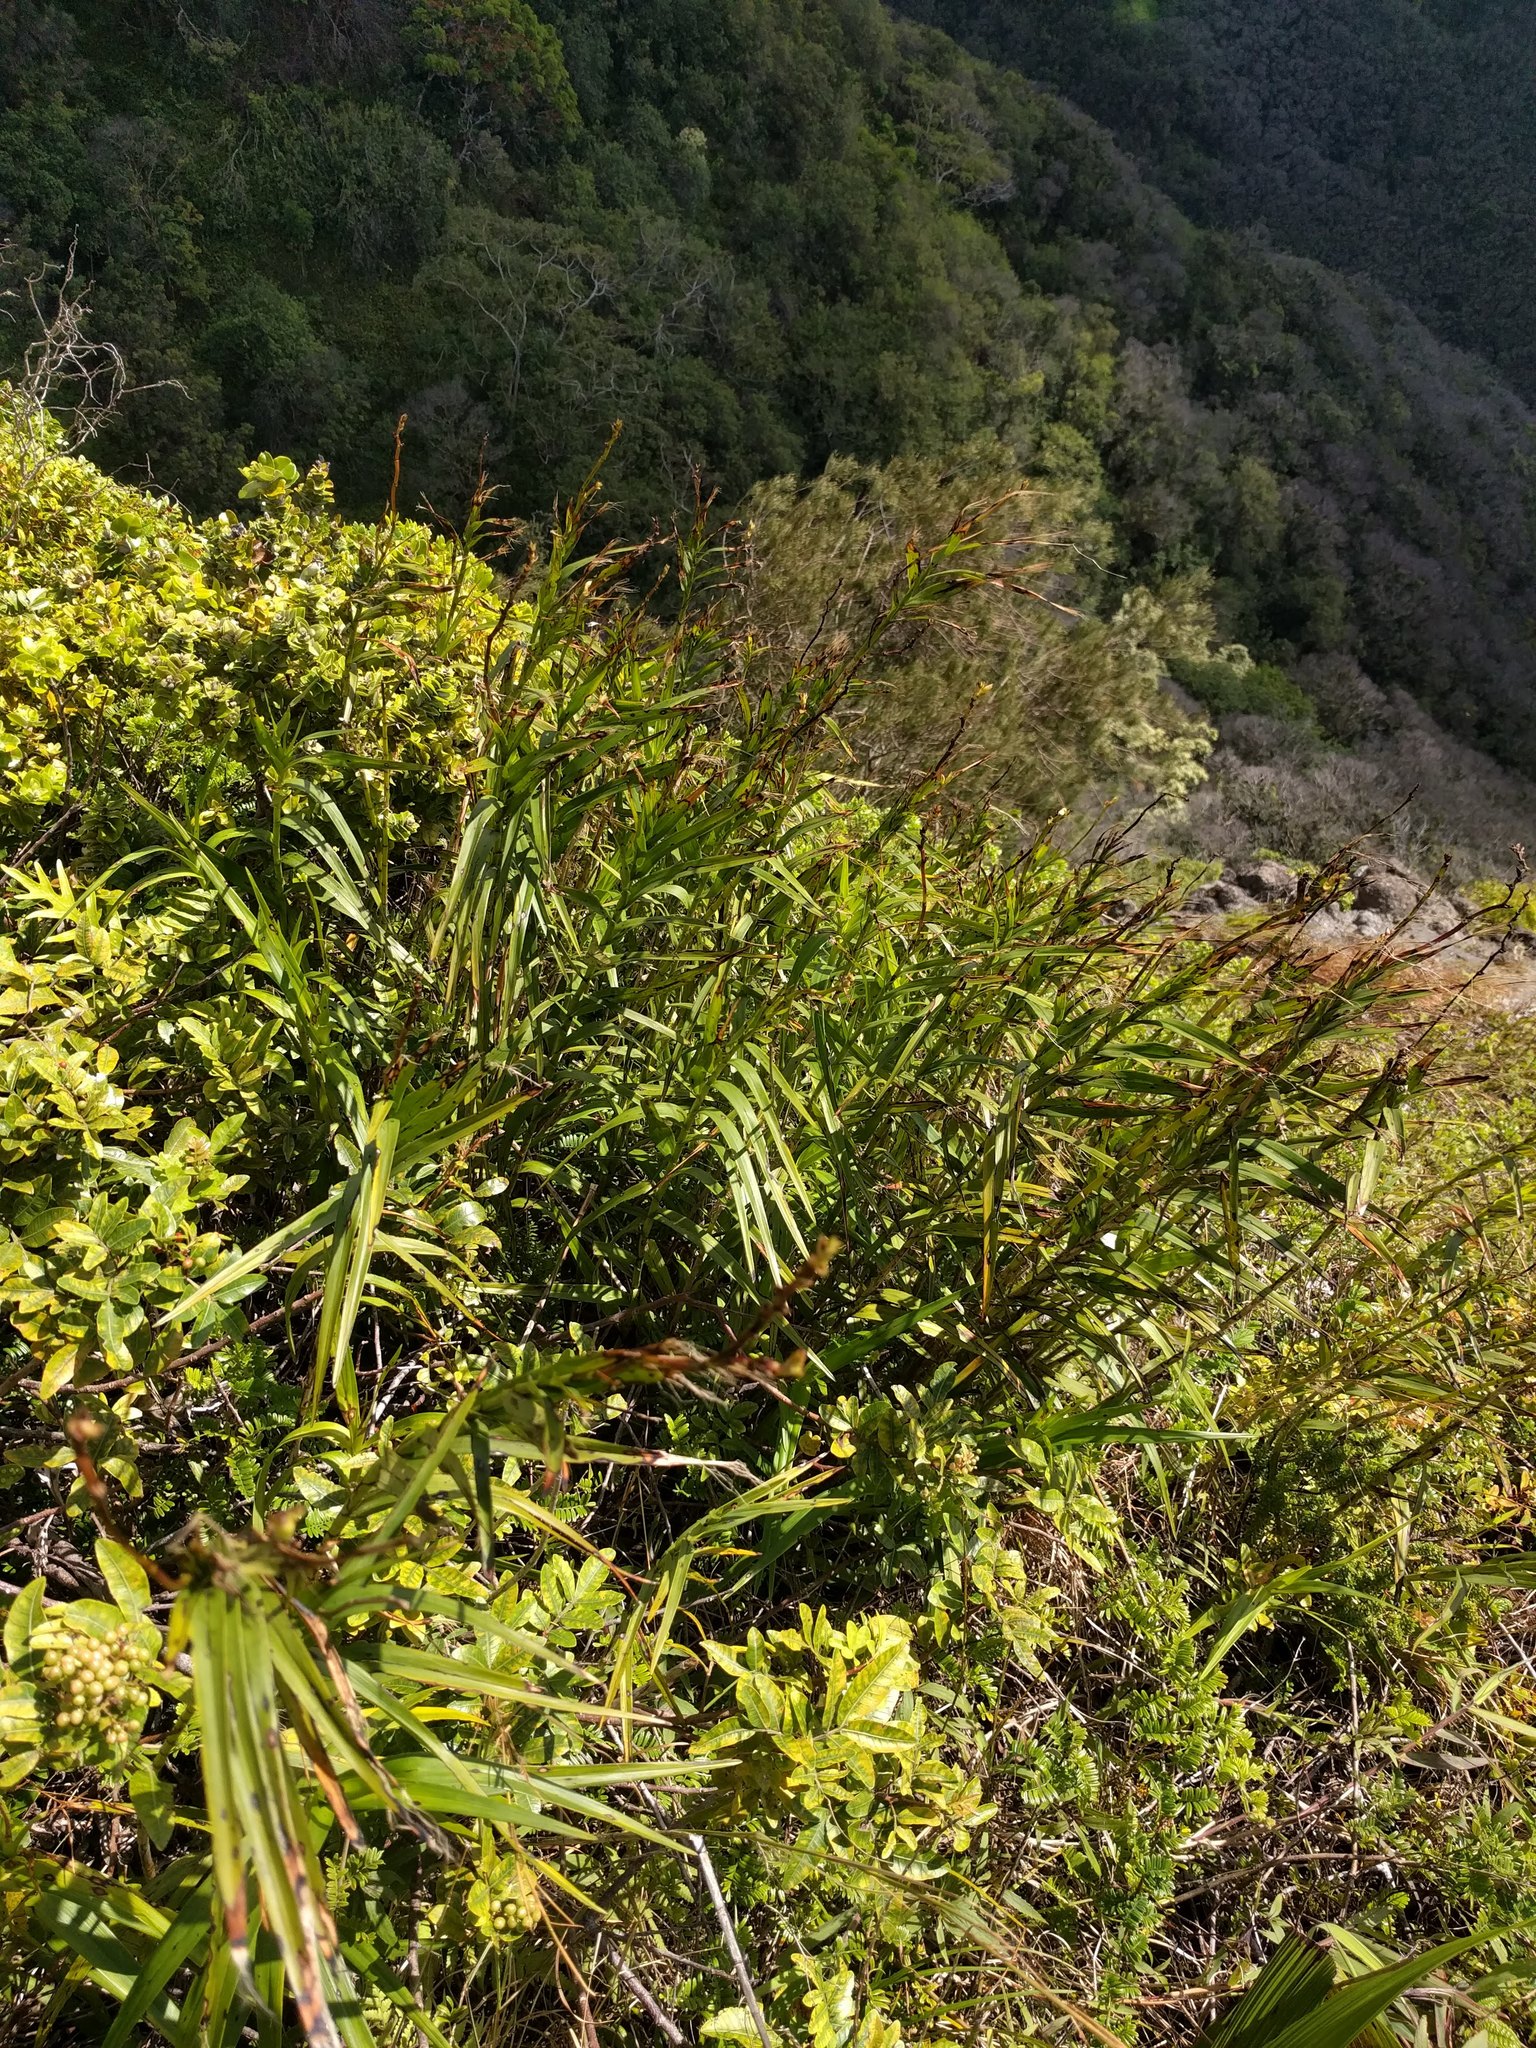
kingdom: Plantae
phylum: Tracheophyta
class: Liliopsida
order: Asparagales
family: Orchidaceae
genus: Arundina
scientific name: Arundina graminifolia
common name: Bamboo orchid
